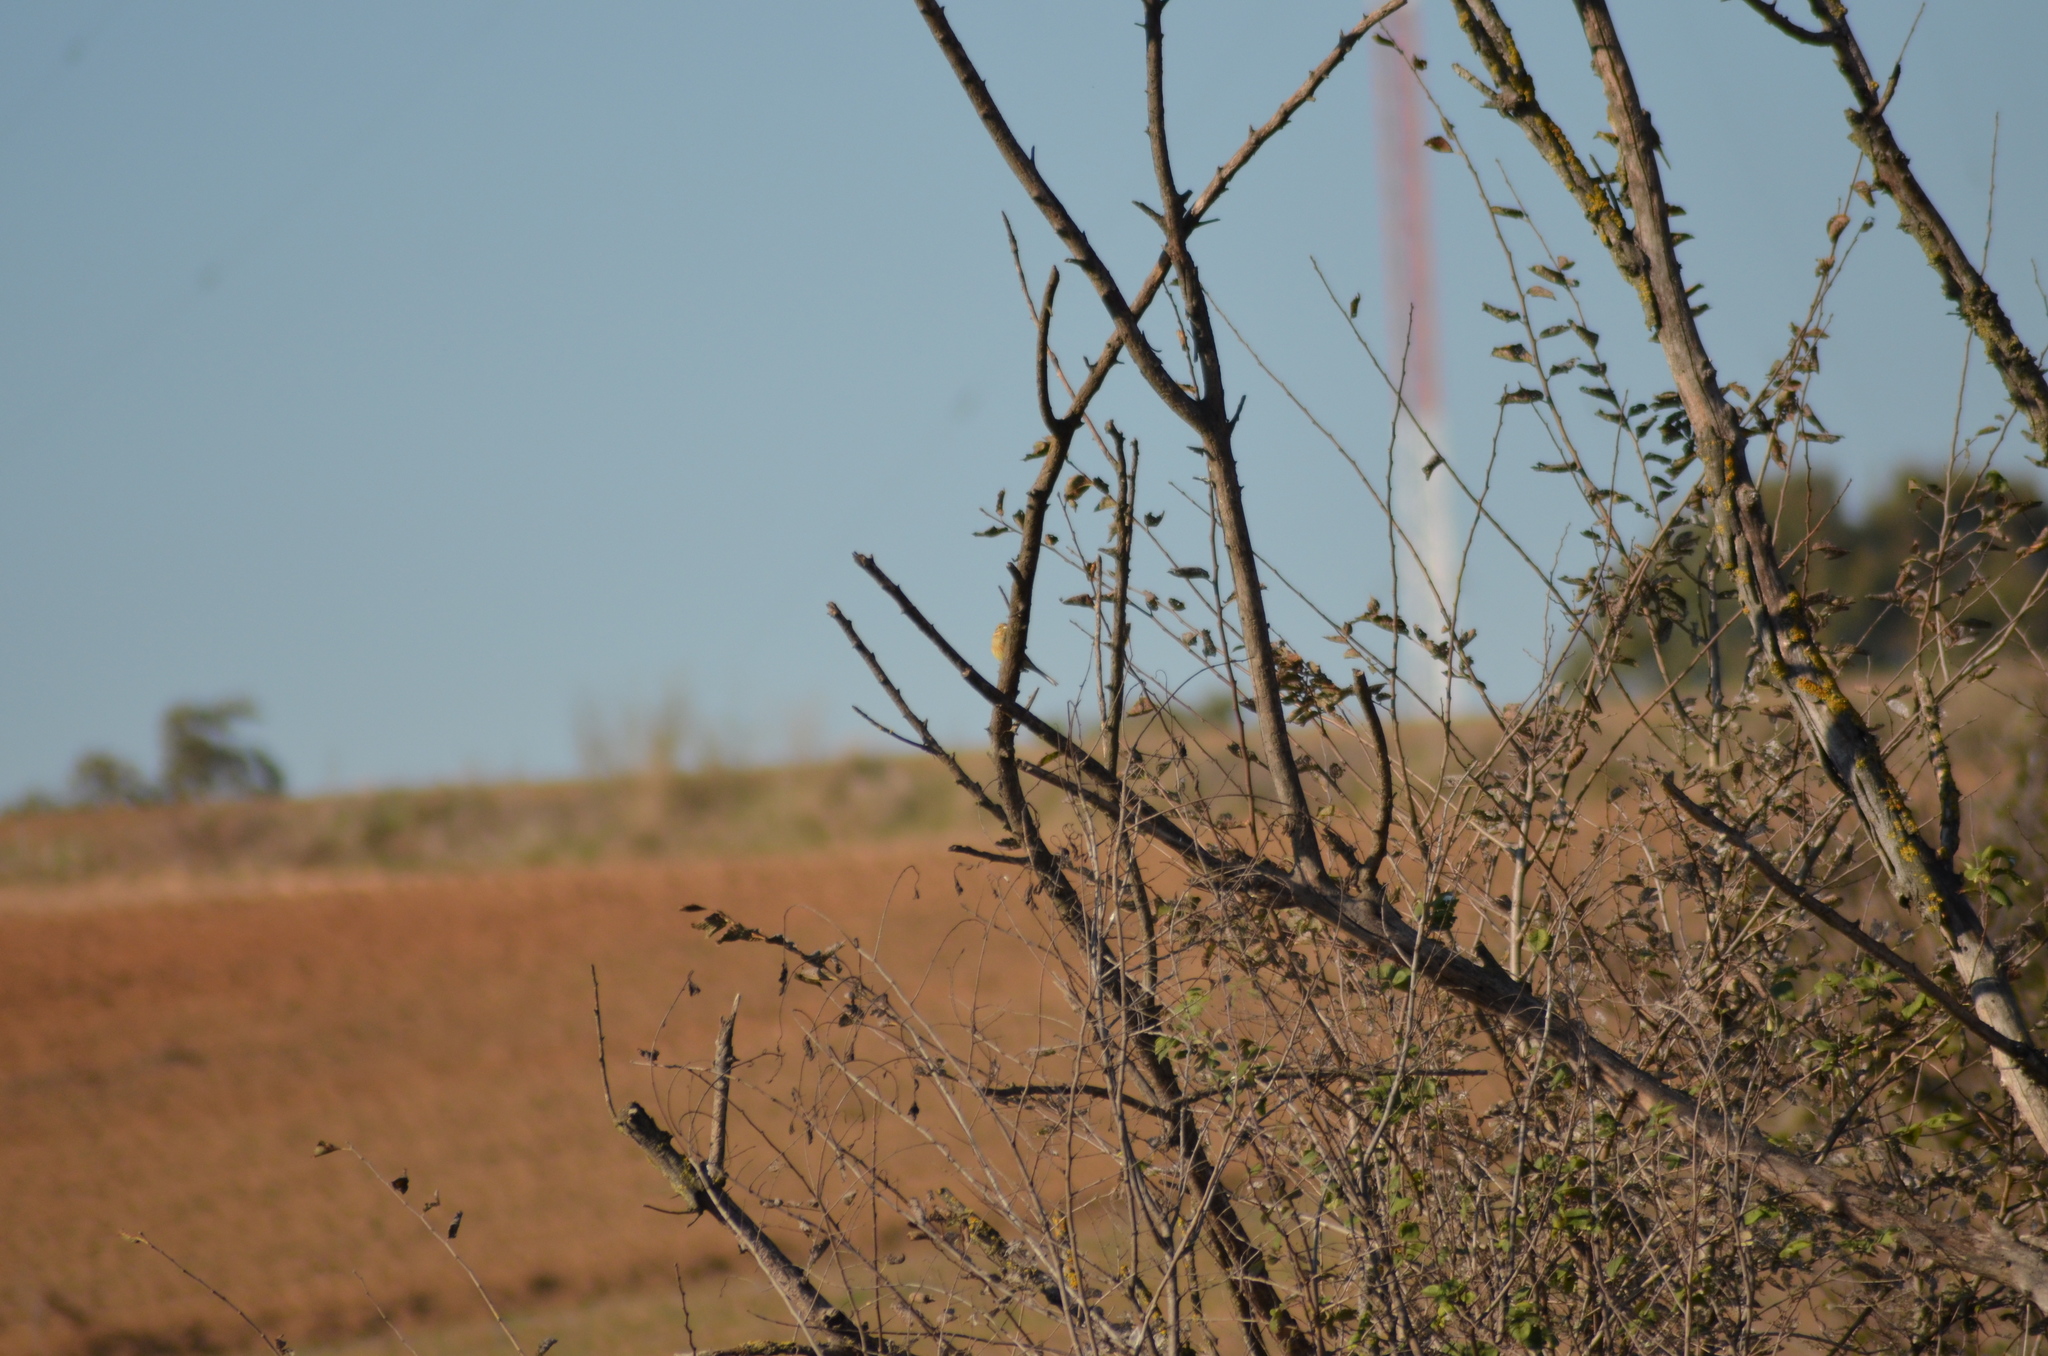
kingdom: Animalia
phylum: Chordata
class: Aves
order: Passeriformes
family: Emberizidae
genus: Emberiza
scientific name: Emberiza cirlus
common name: Cirl bunting
